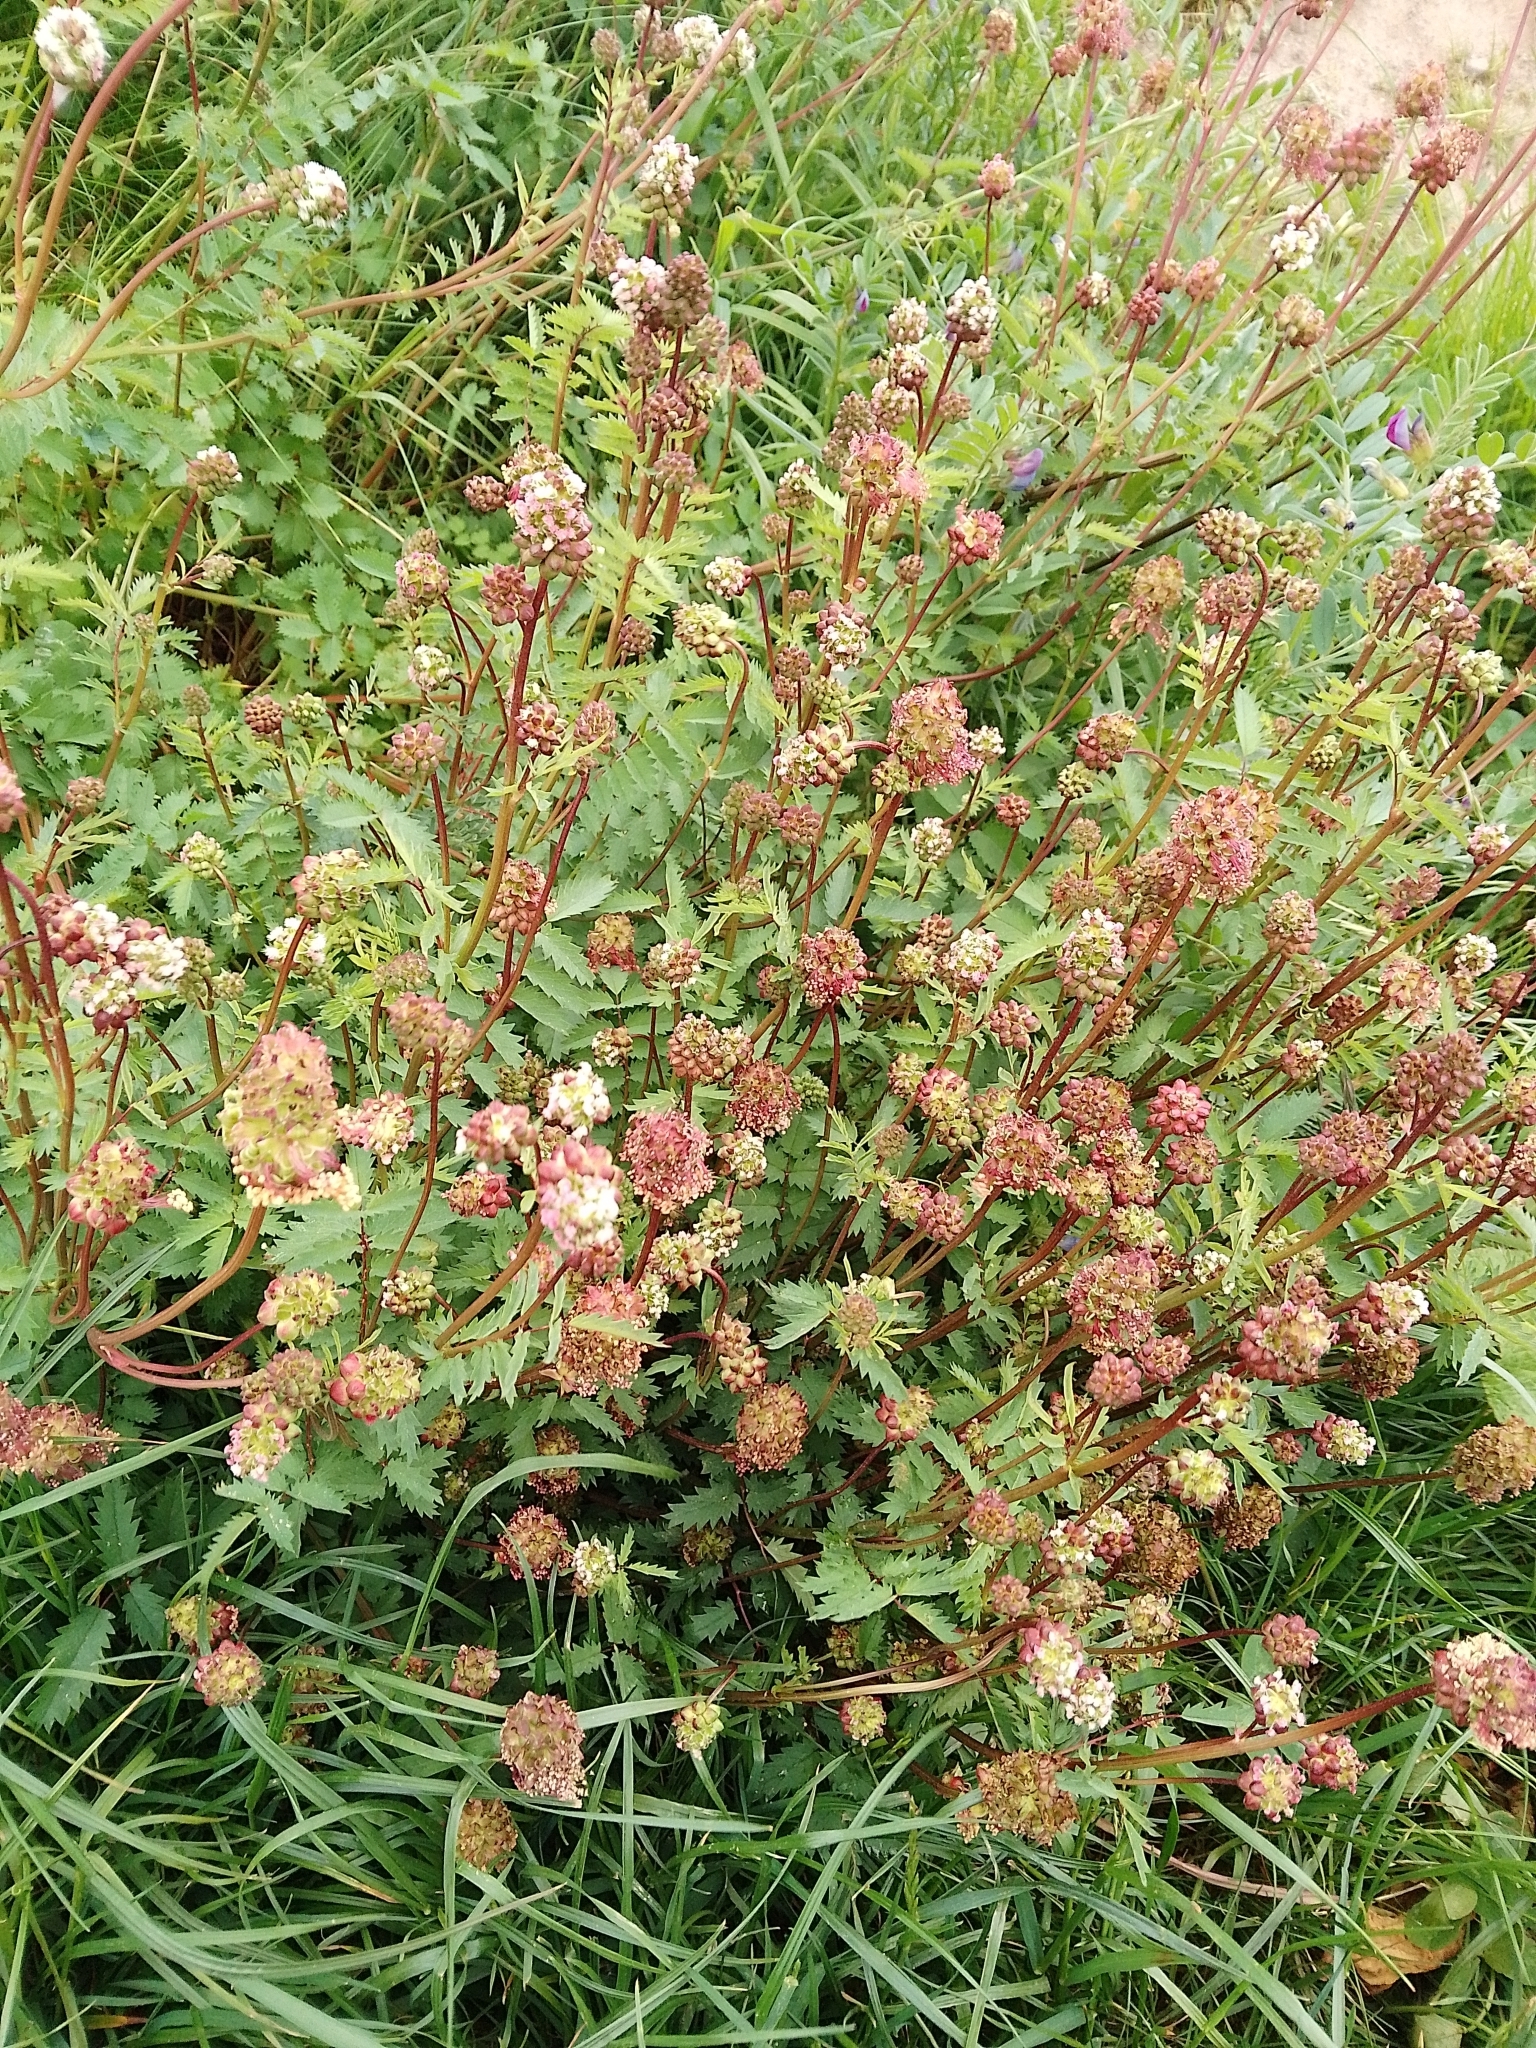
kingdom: Plantae
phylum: Tracheophyta
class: Magnoliopsida
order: Rosales
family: Rosaceae
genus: Poterium
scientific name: Poterium sanguisorba
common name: Salad burnet
